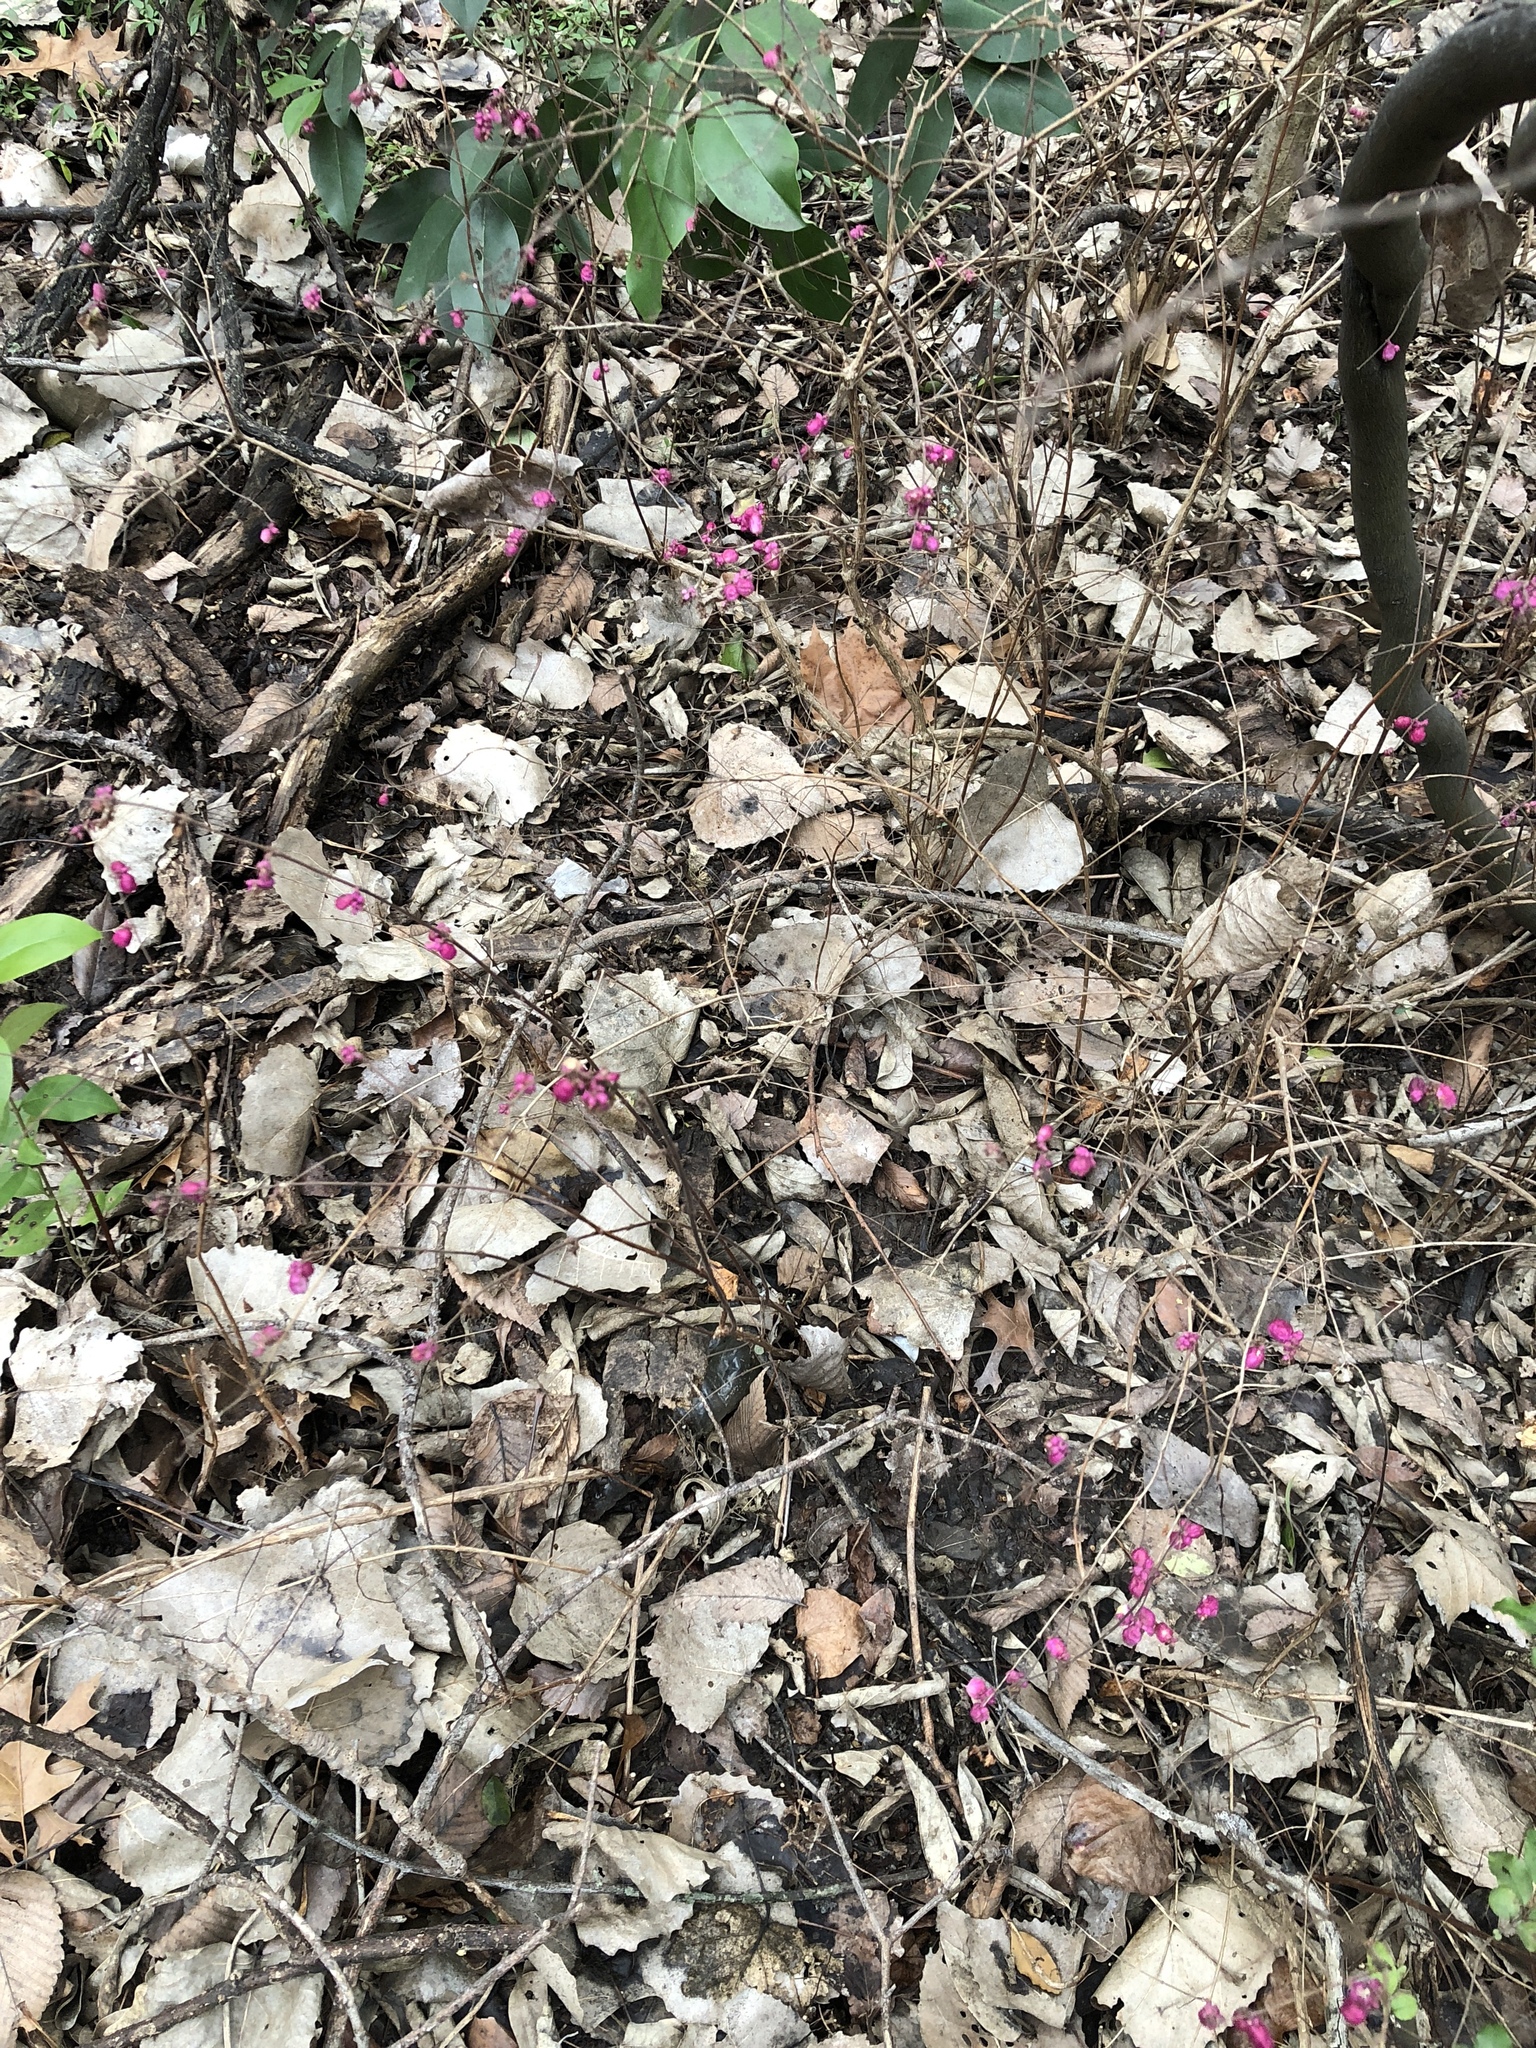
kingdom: Plantae
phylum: Tracheophyta
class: Magnoliopsida
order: Dipsacales
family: Caprifoliaceae
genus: Symphoricarpos
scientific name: Symphoricarpos orbiculatus
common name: Coralberry
